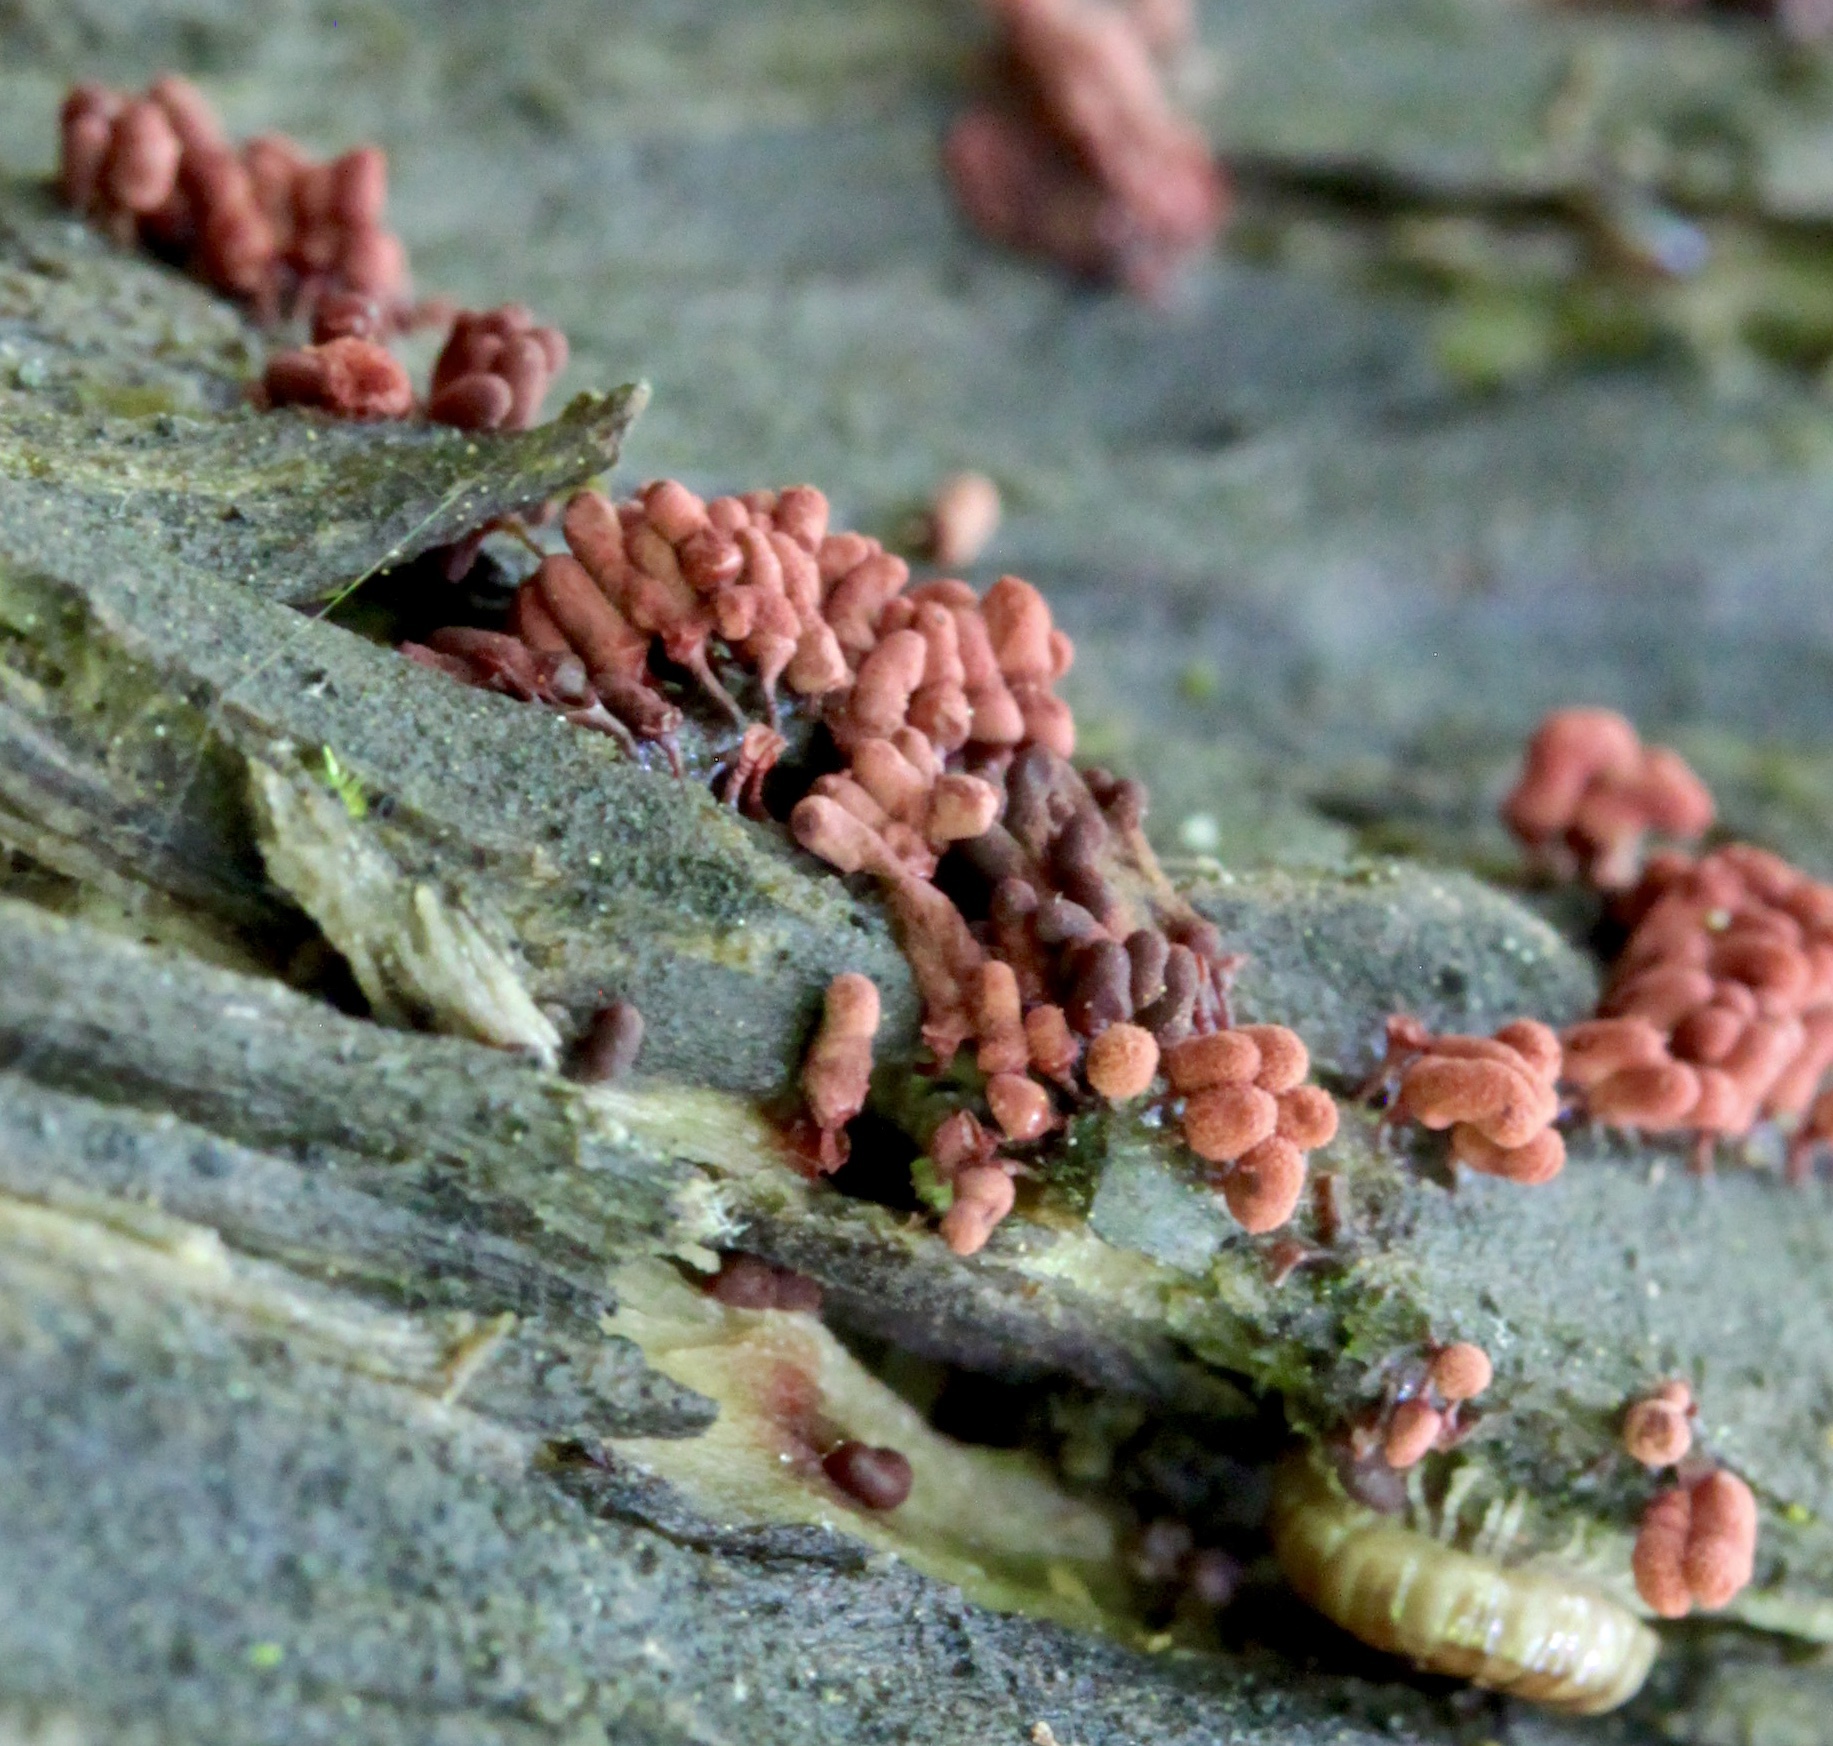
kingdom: Protozoa
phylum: Mycetozoa
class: Myxomycetes
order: Trichiales
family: Arcyriaceae
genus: Arcyria
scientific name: Arcyria denudata
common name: Carnival candy slime mold
